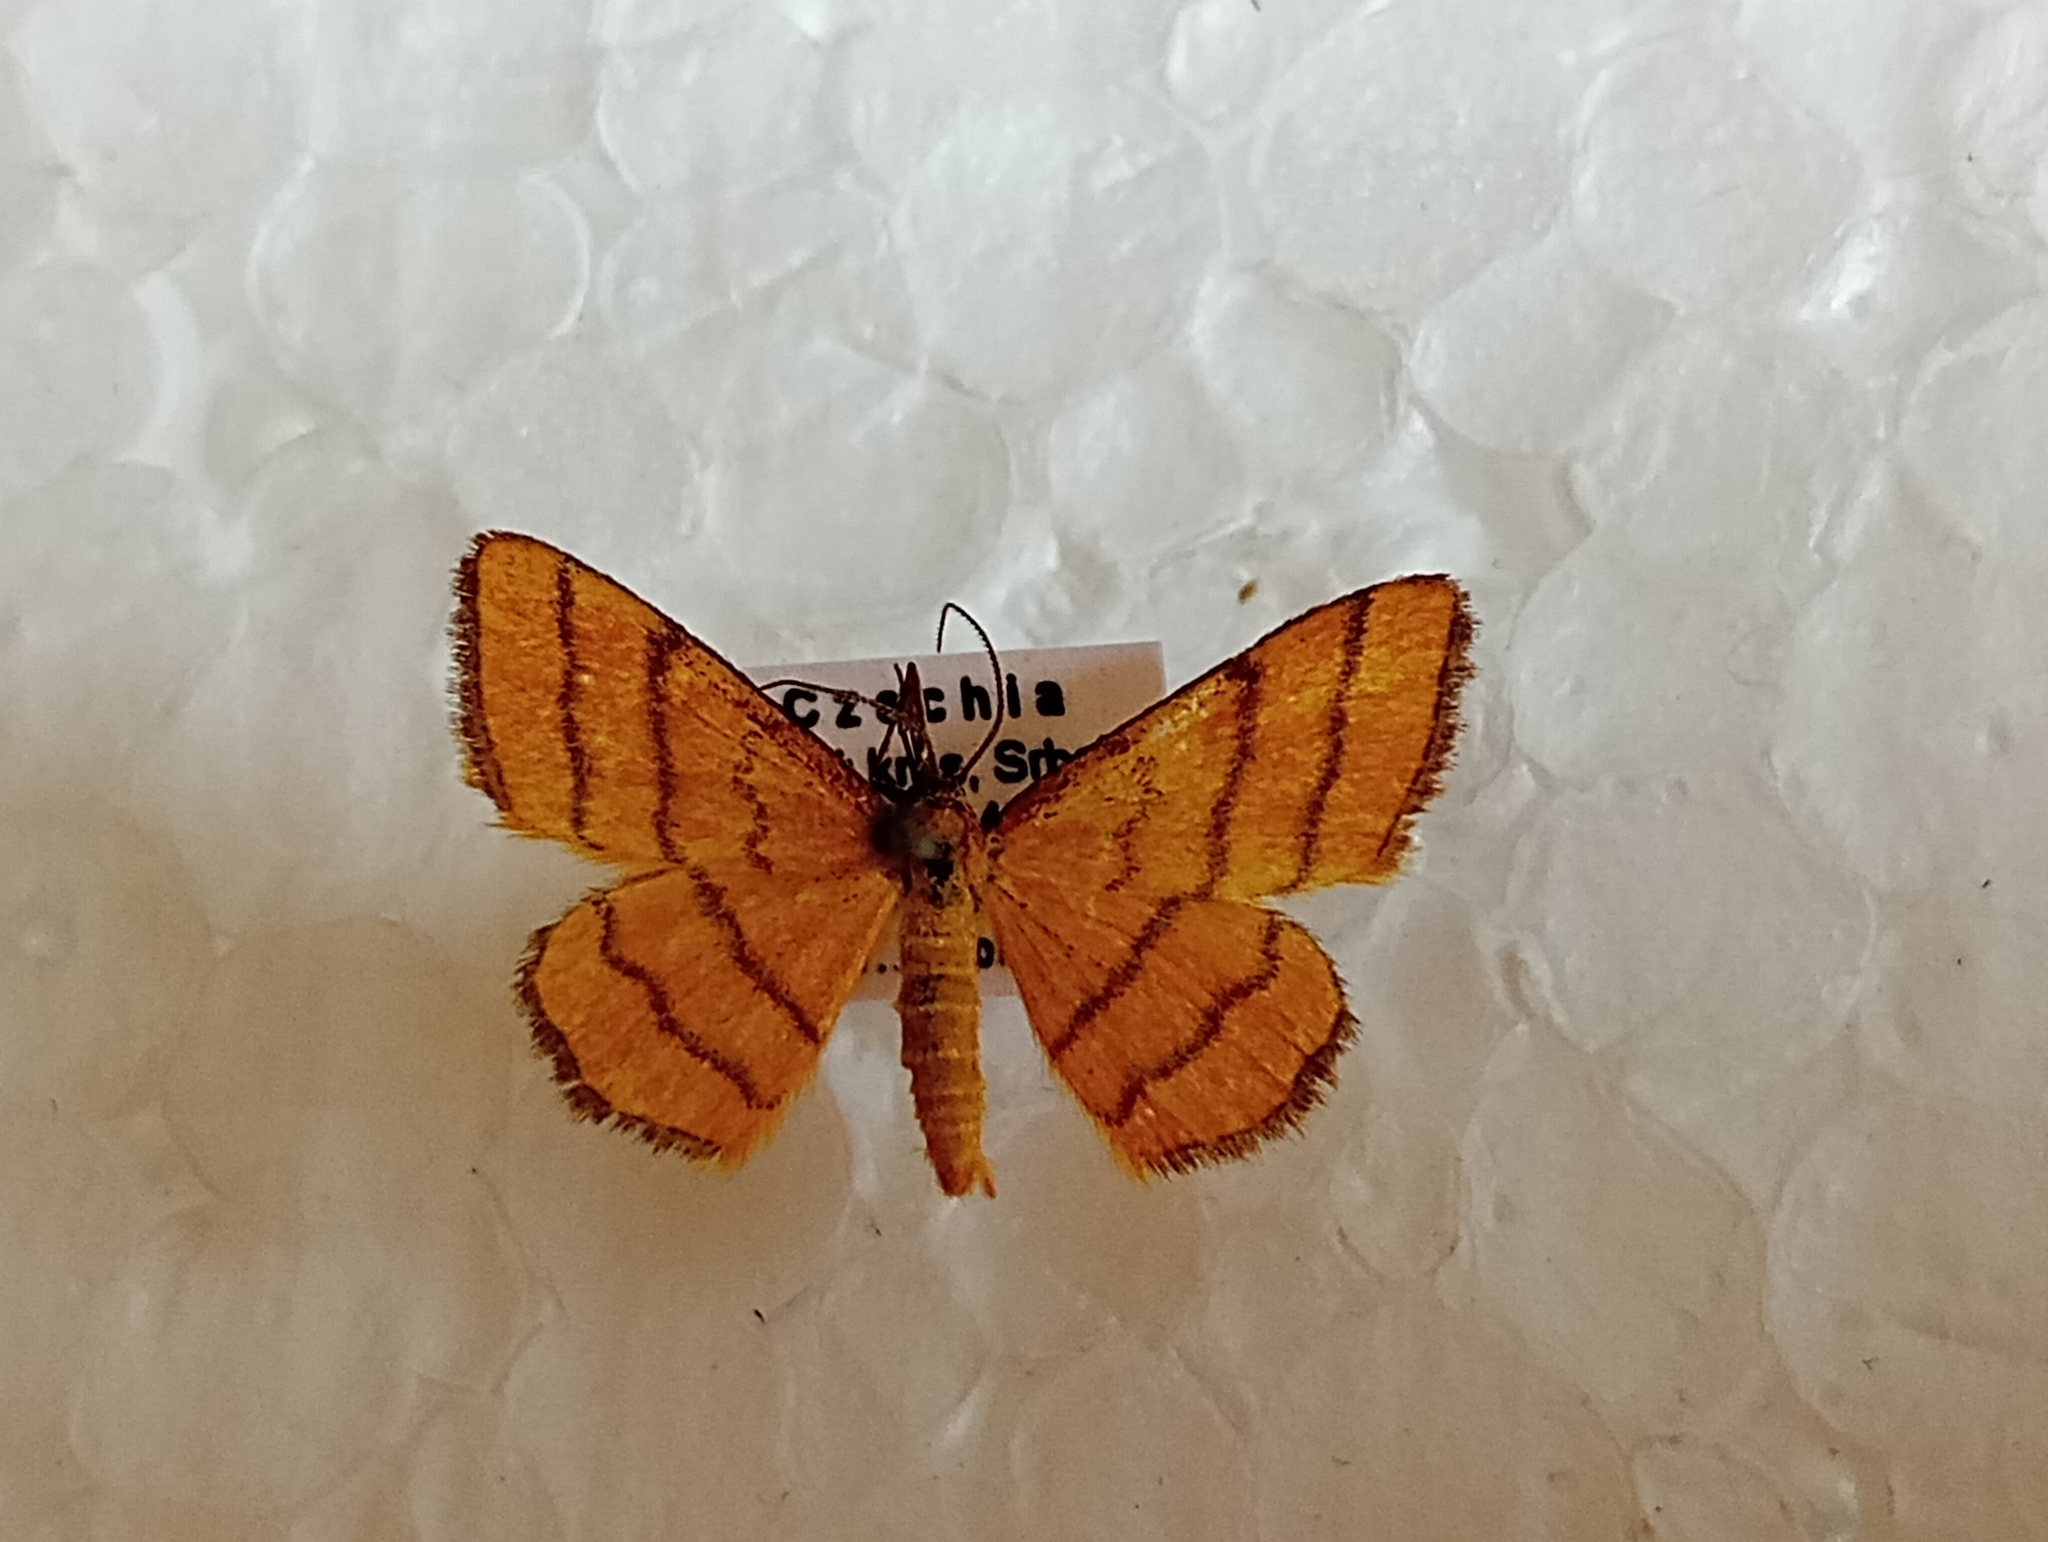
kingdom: Animalia
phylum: Arthropoda
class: Insecta
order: Lepidoptera
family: Geometridae
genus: Idaea
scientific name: Idaea aureolaria
